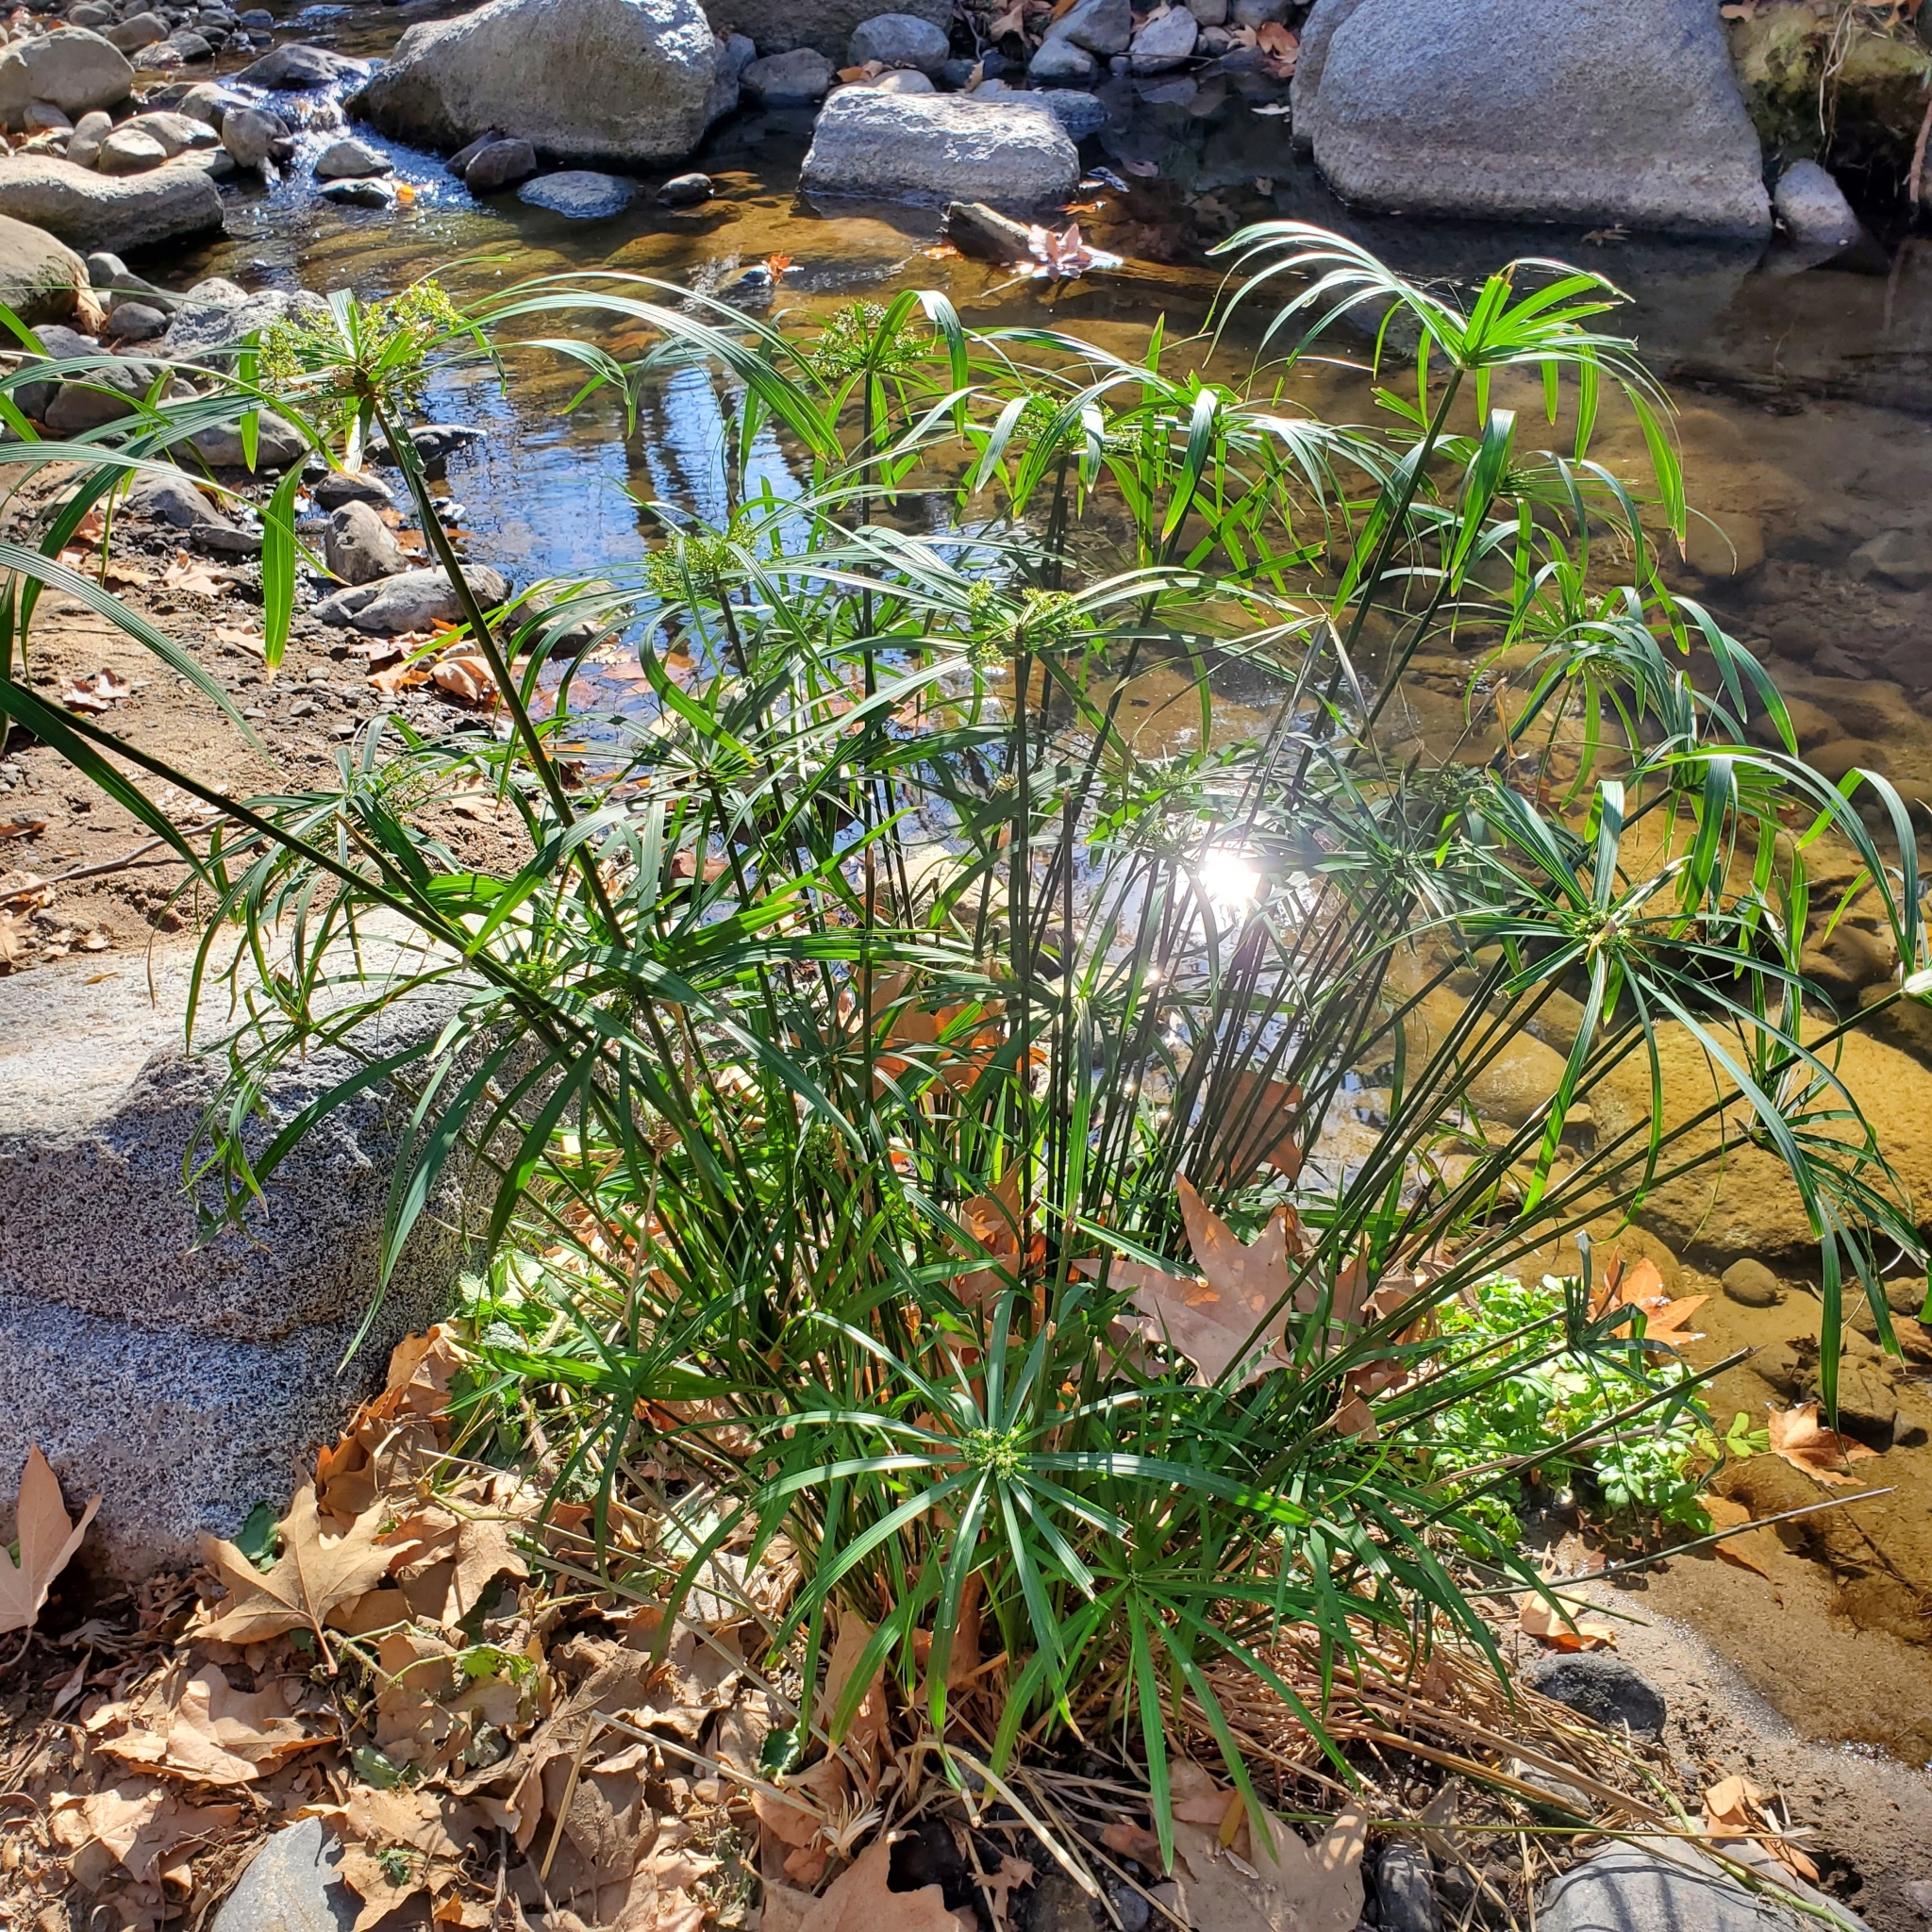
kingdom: Plantae
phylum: Tracheophyta
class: Liliopsida
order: Poales
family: Cyperaceae
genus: Cyperus
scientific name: Cyperus alternifolius
